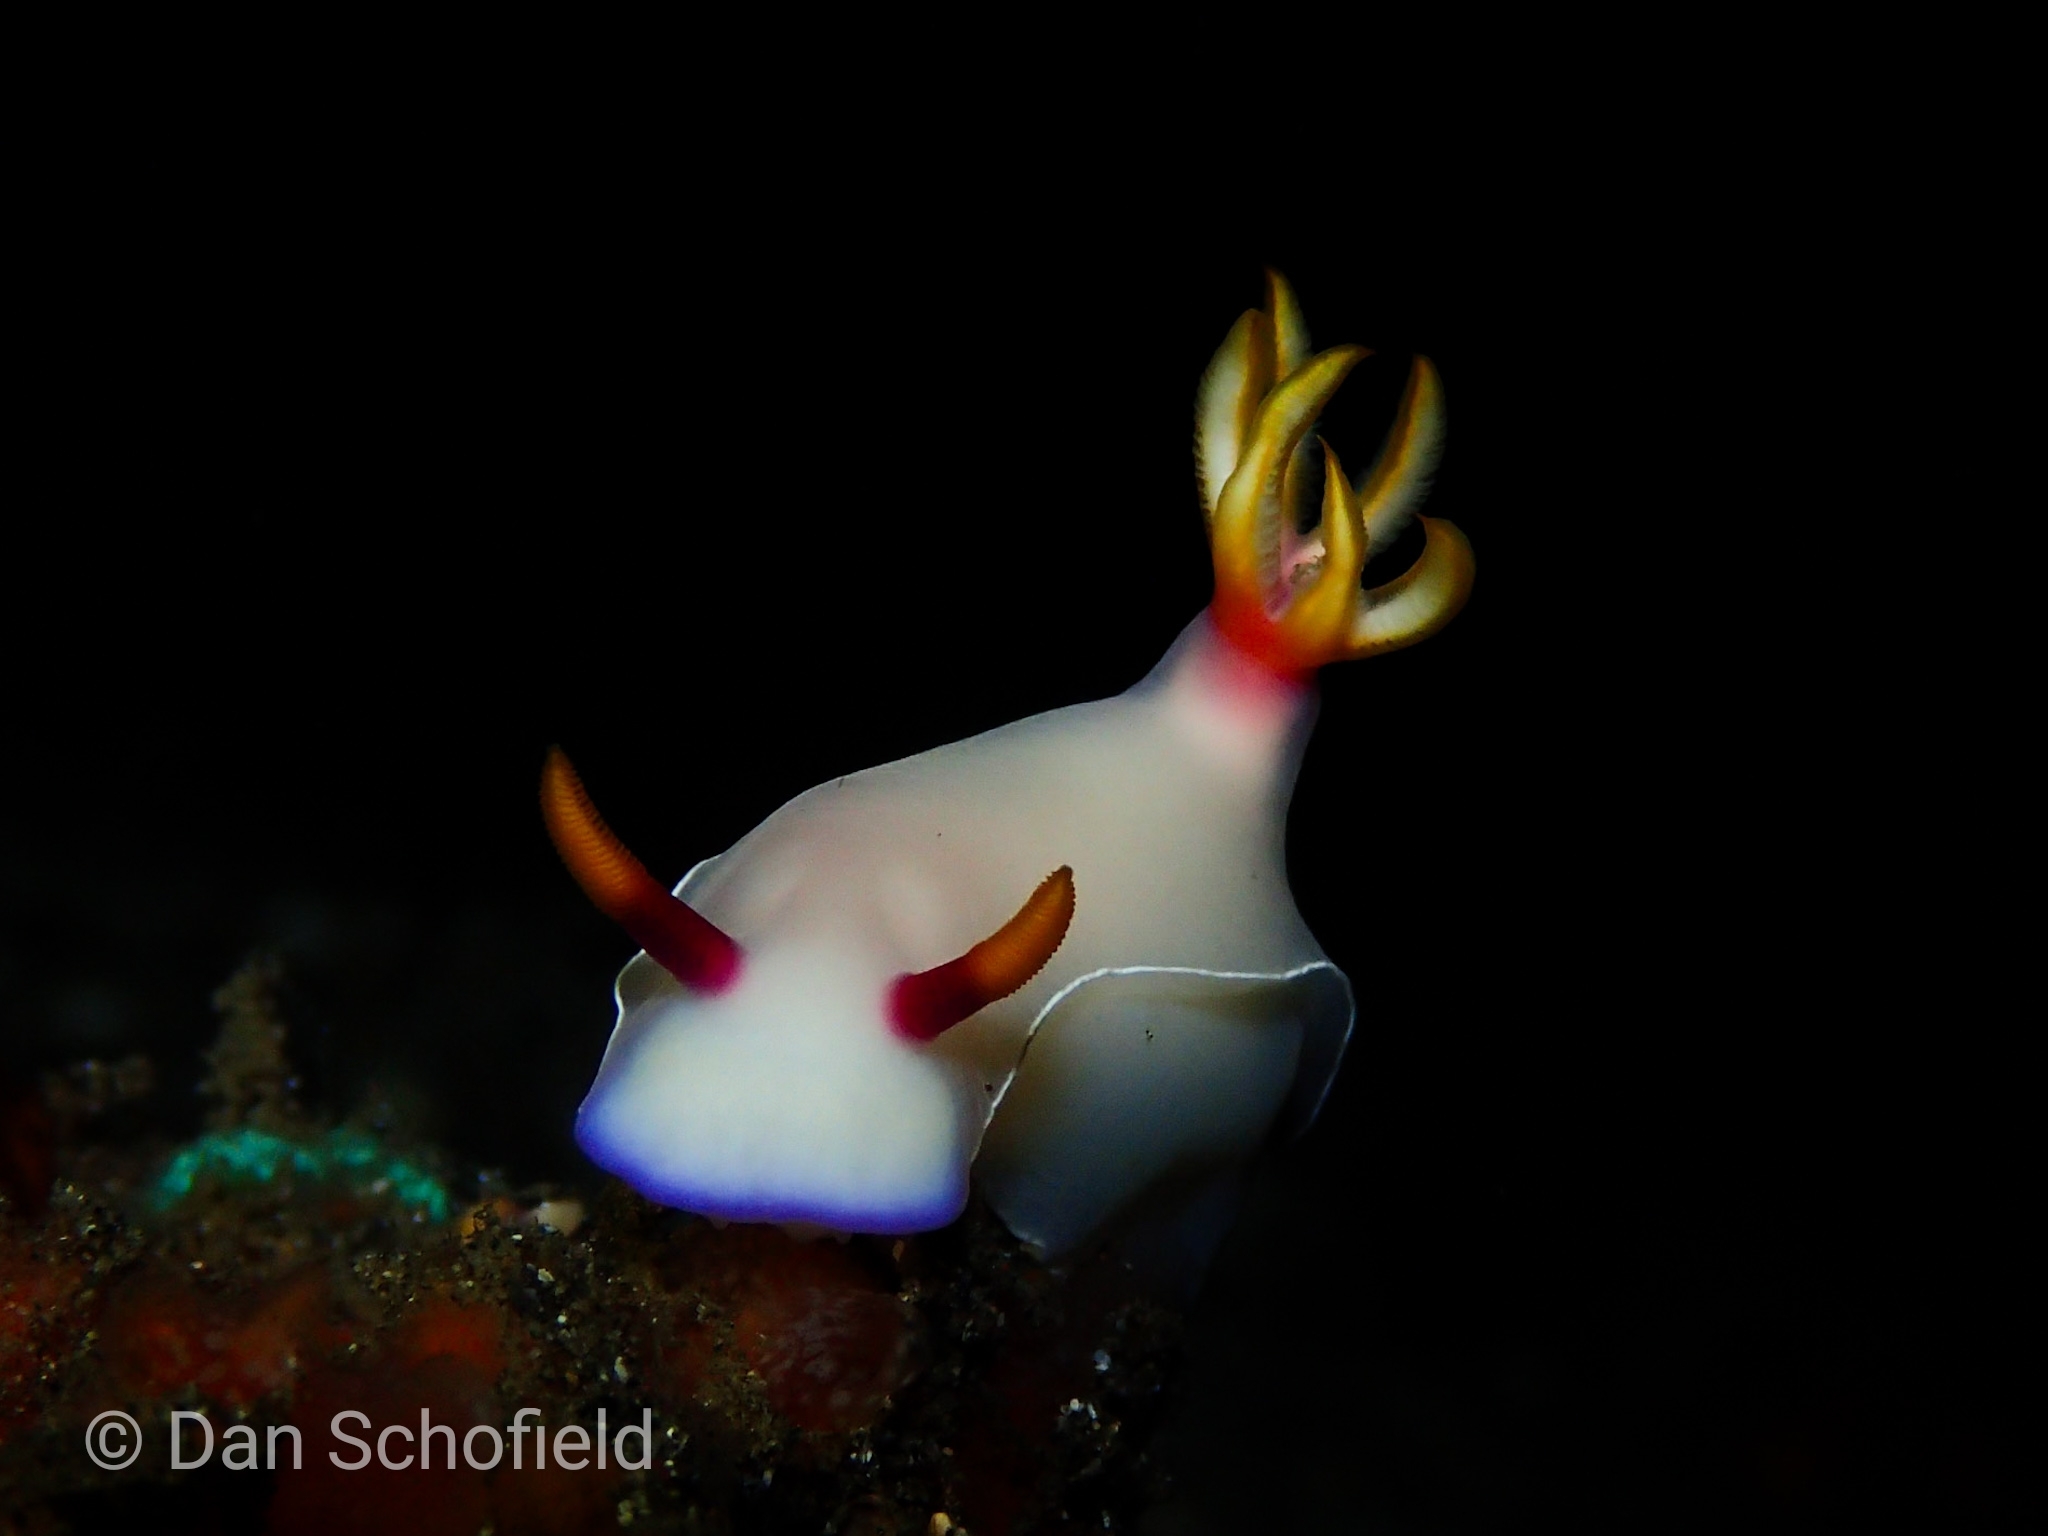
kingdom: Animalia
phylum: Mollusca
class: Gastropoda
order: Nudibranchia
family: Chromodorididae
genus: Hypselodoris
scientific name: Hypselodoris bullockii
